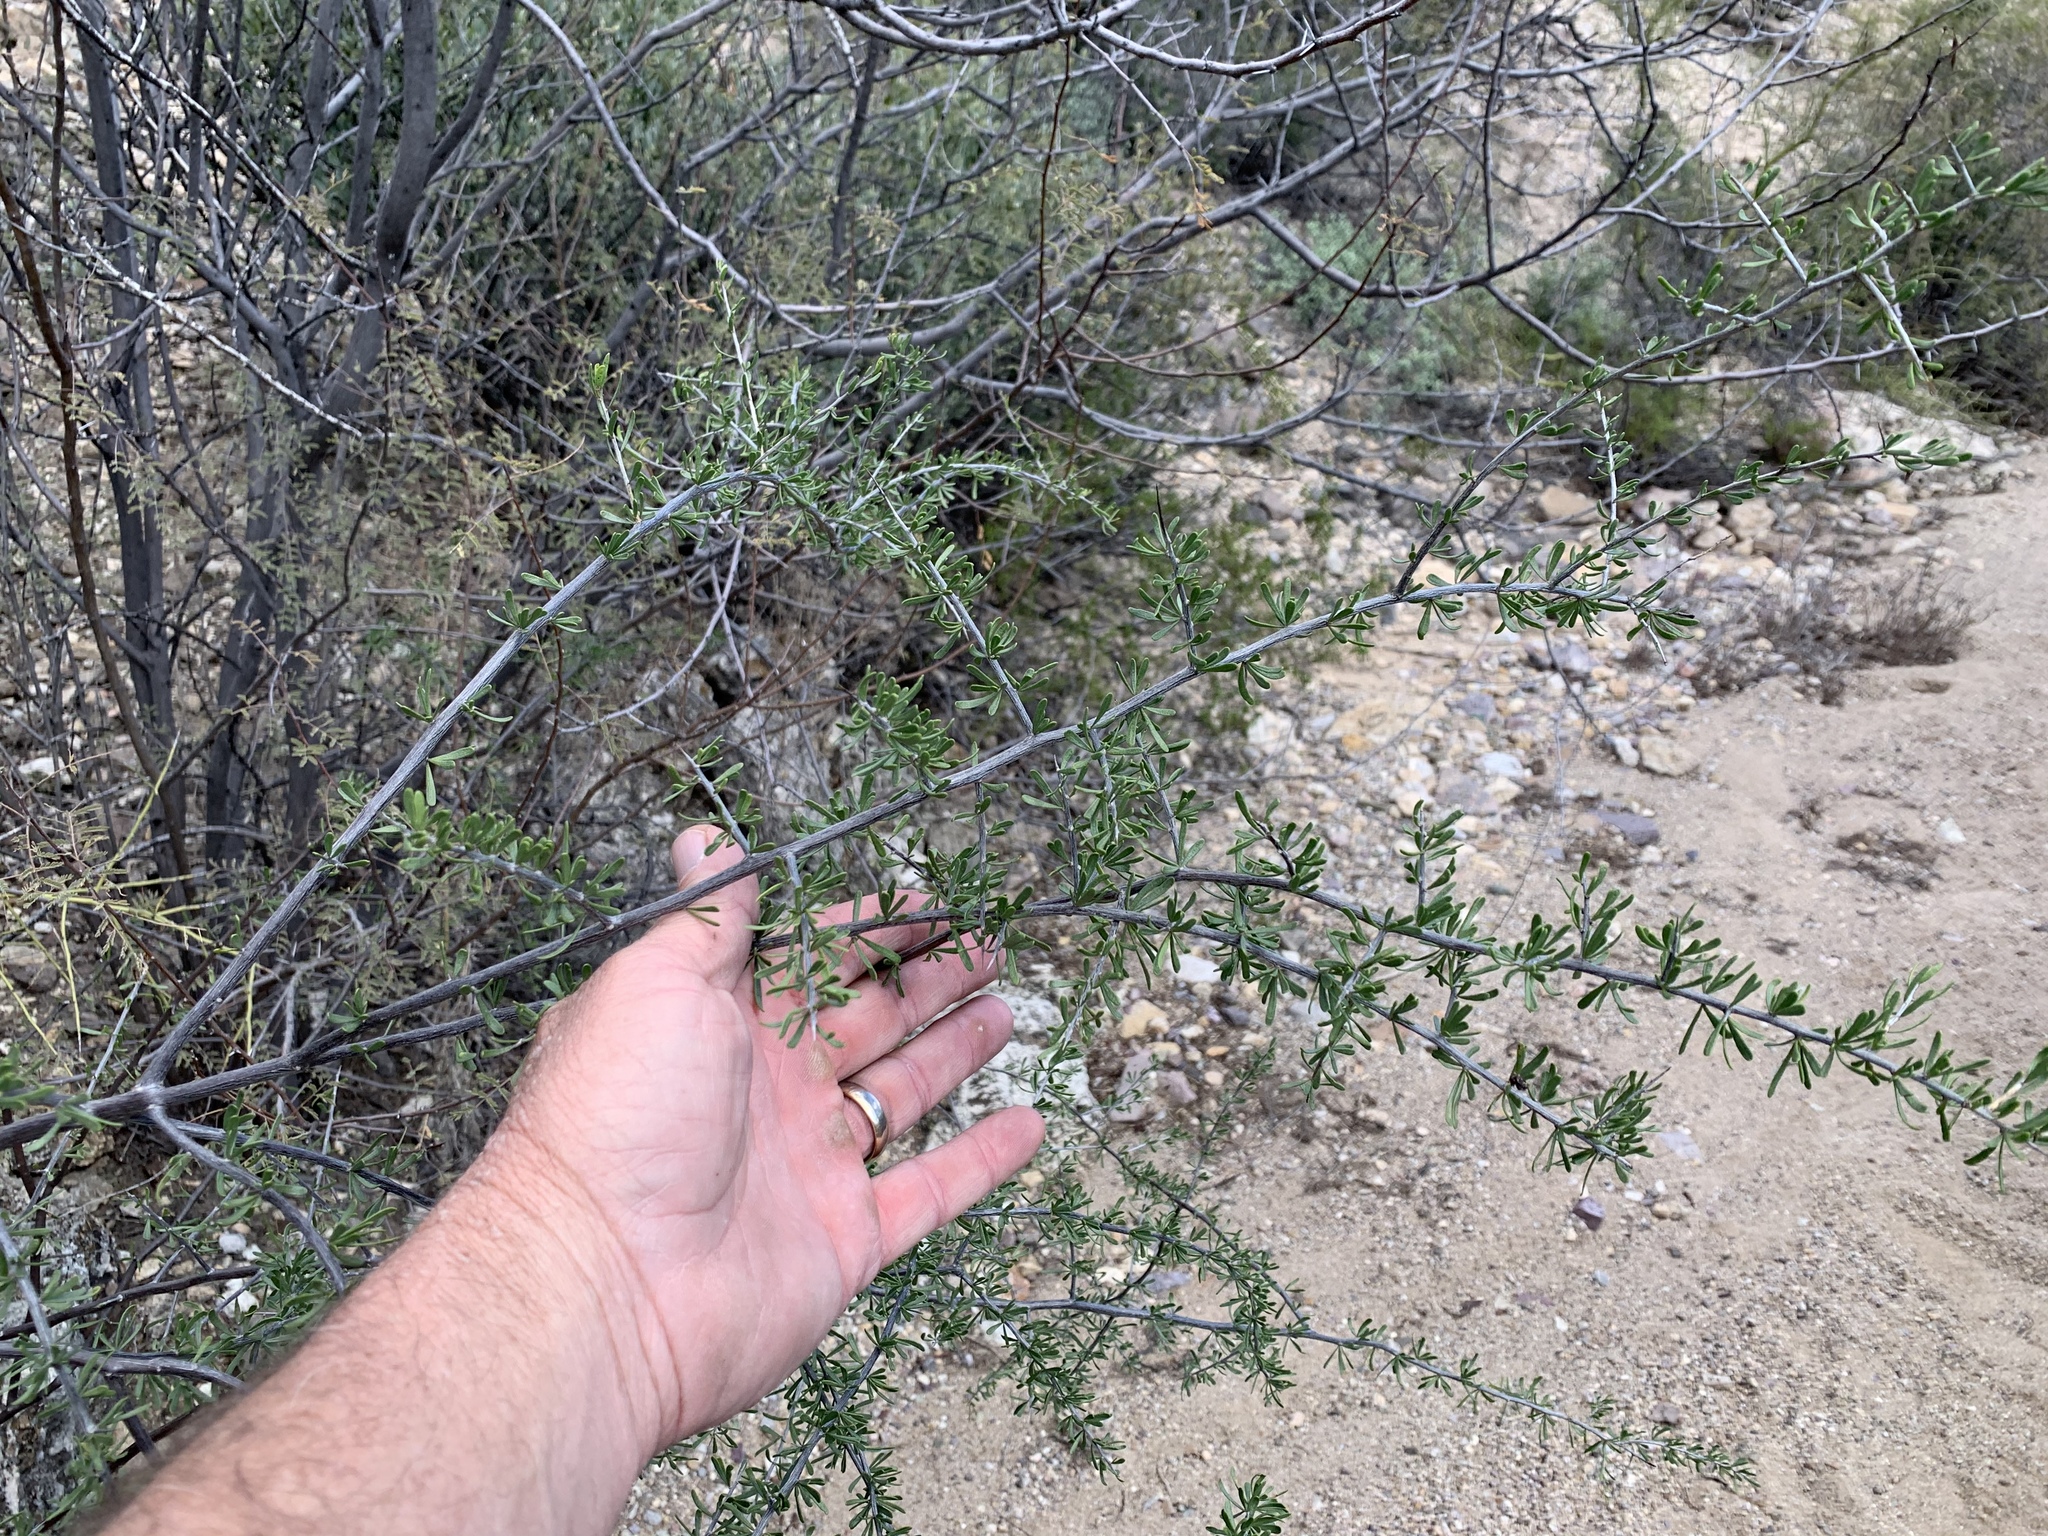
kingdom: Plantae
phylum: Tracheophyta
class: Magnoliopsida
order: Solanales
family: Solanaceae
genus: Lycium
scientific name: Lycium berlandieri
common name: Berlandier wolfberry
